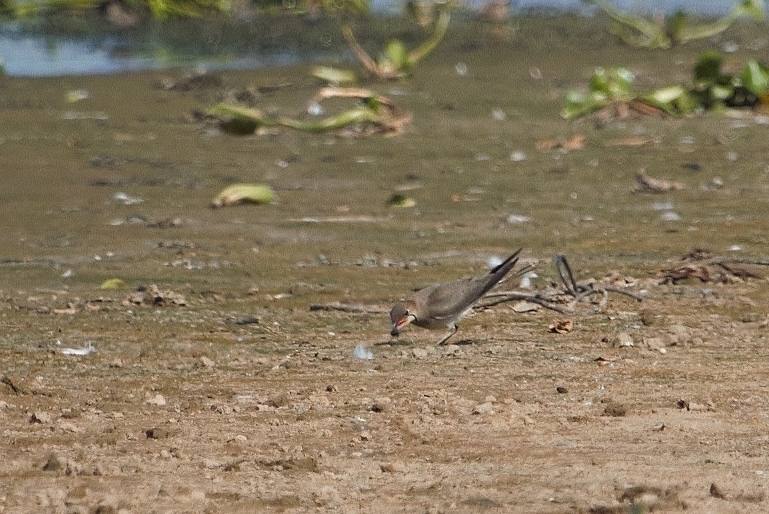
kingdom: Animalia
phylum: Chordata
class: Aves
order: Charadriiformes
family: Glareolidae
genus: Glareola
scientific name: Glareola pratincola
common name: Collared pratincole
